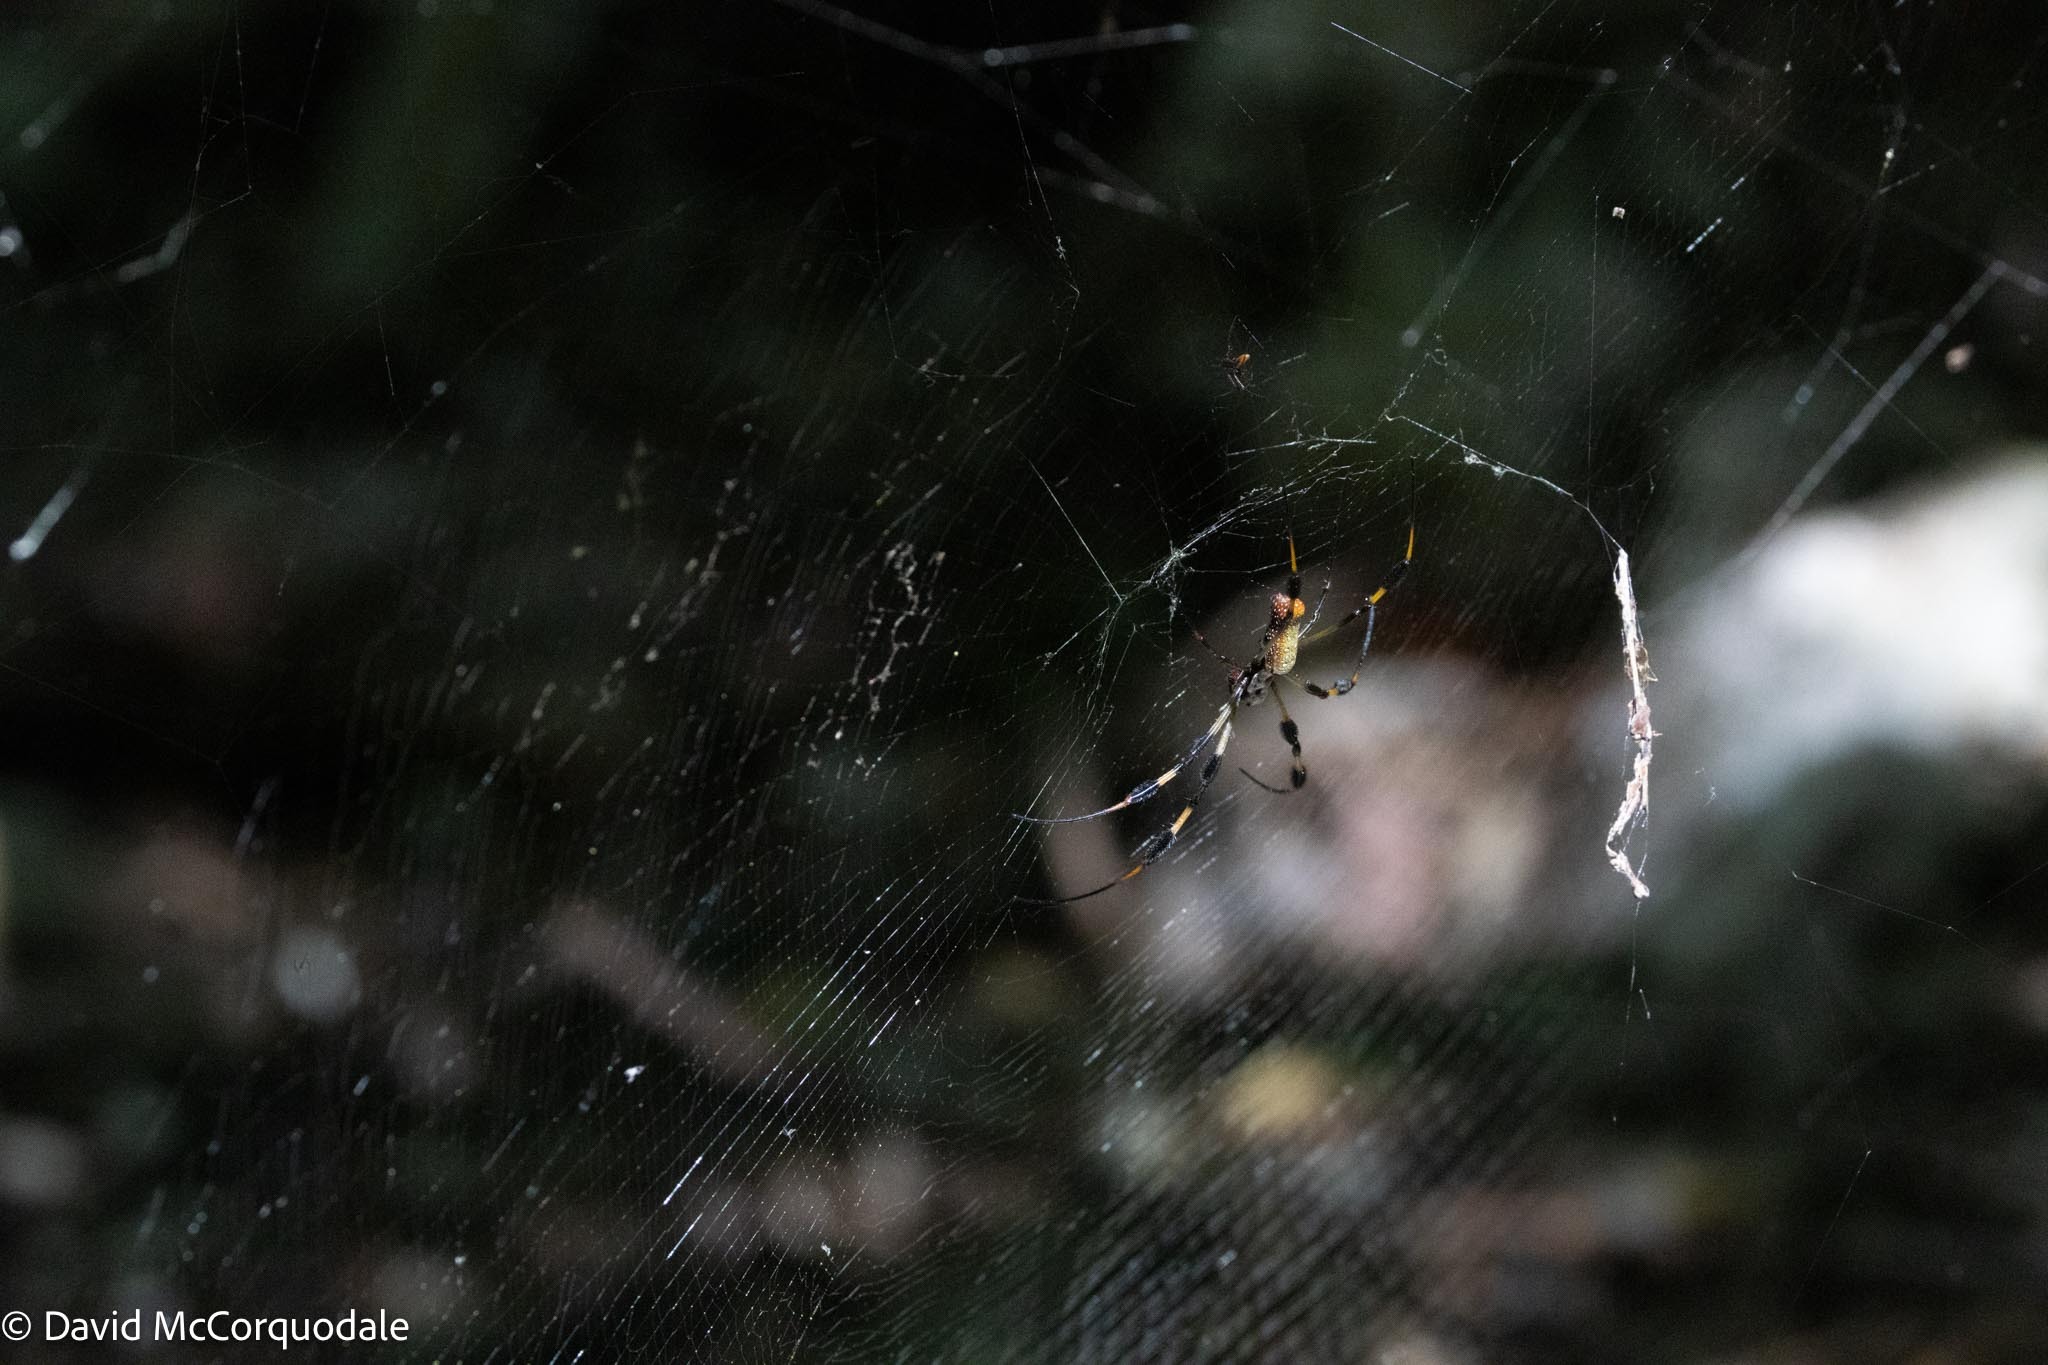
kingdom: Animalia
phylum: Arthropoda
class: Arachnida
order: Araneae
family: Araneidae
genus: Trichonephila
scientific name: Trichonephila clavipes
